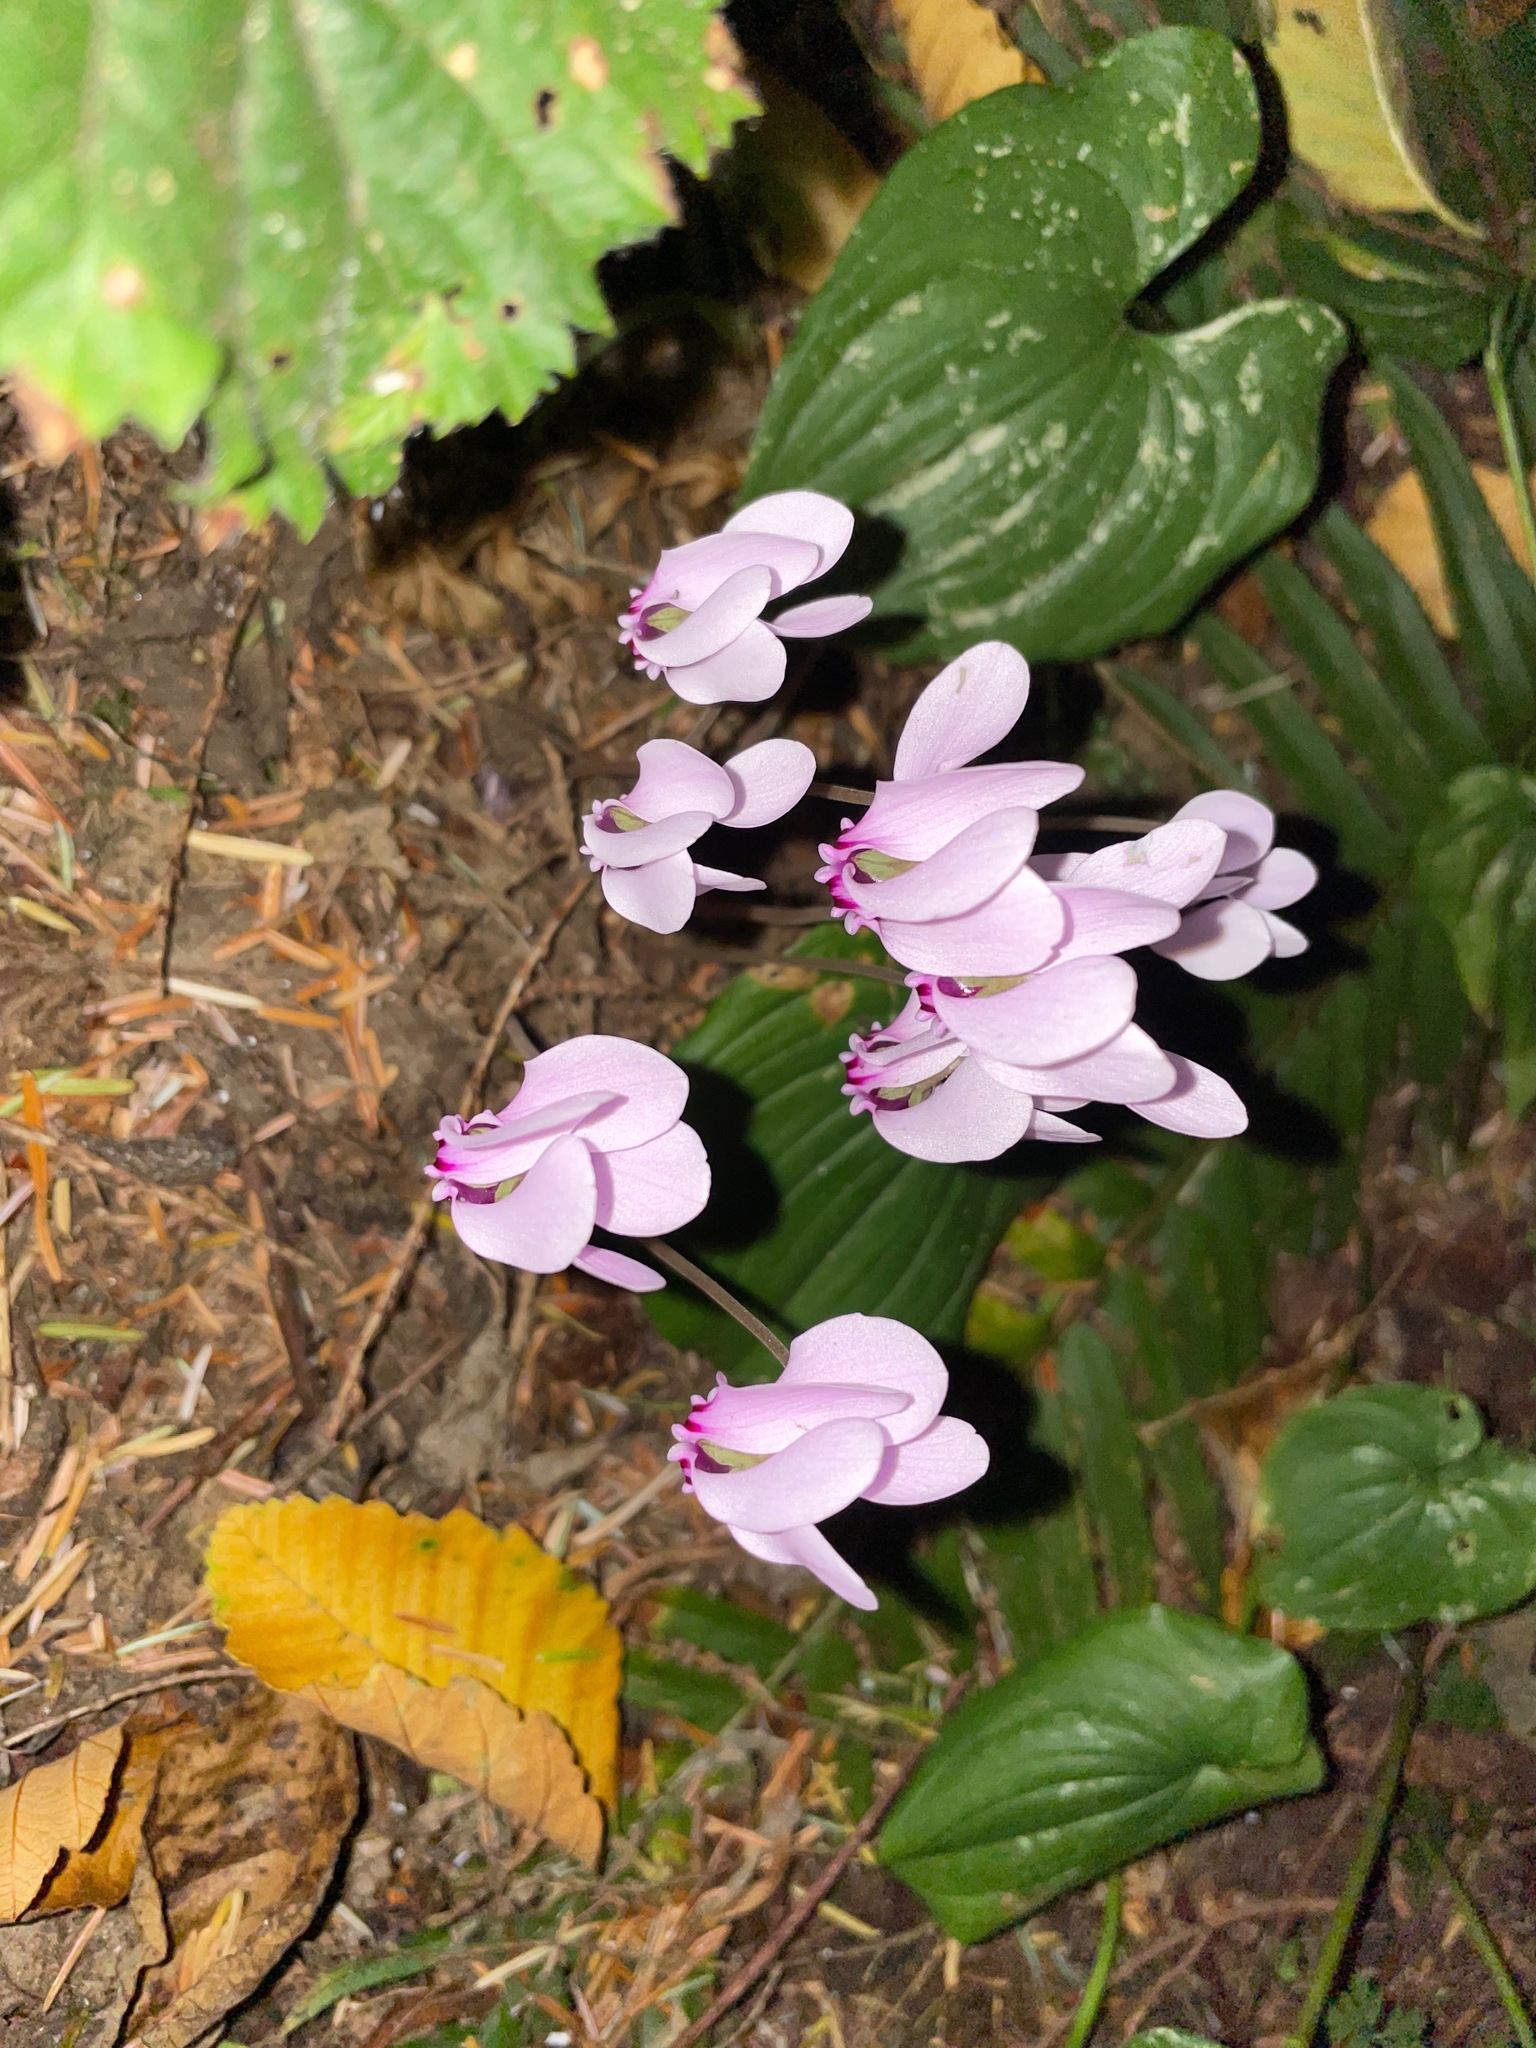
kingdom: Plantae
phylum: Tracheophyta
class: Magnoliopsida
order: Ericales
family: Primulaceae
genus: Cyclamen
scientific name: Cyclamen hederifolium
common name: Sowbread
